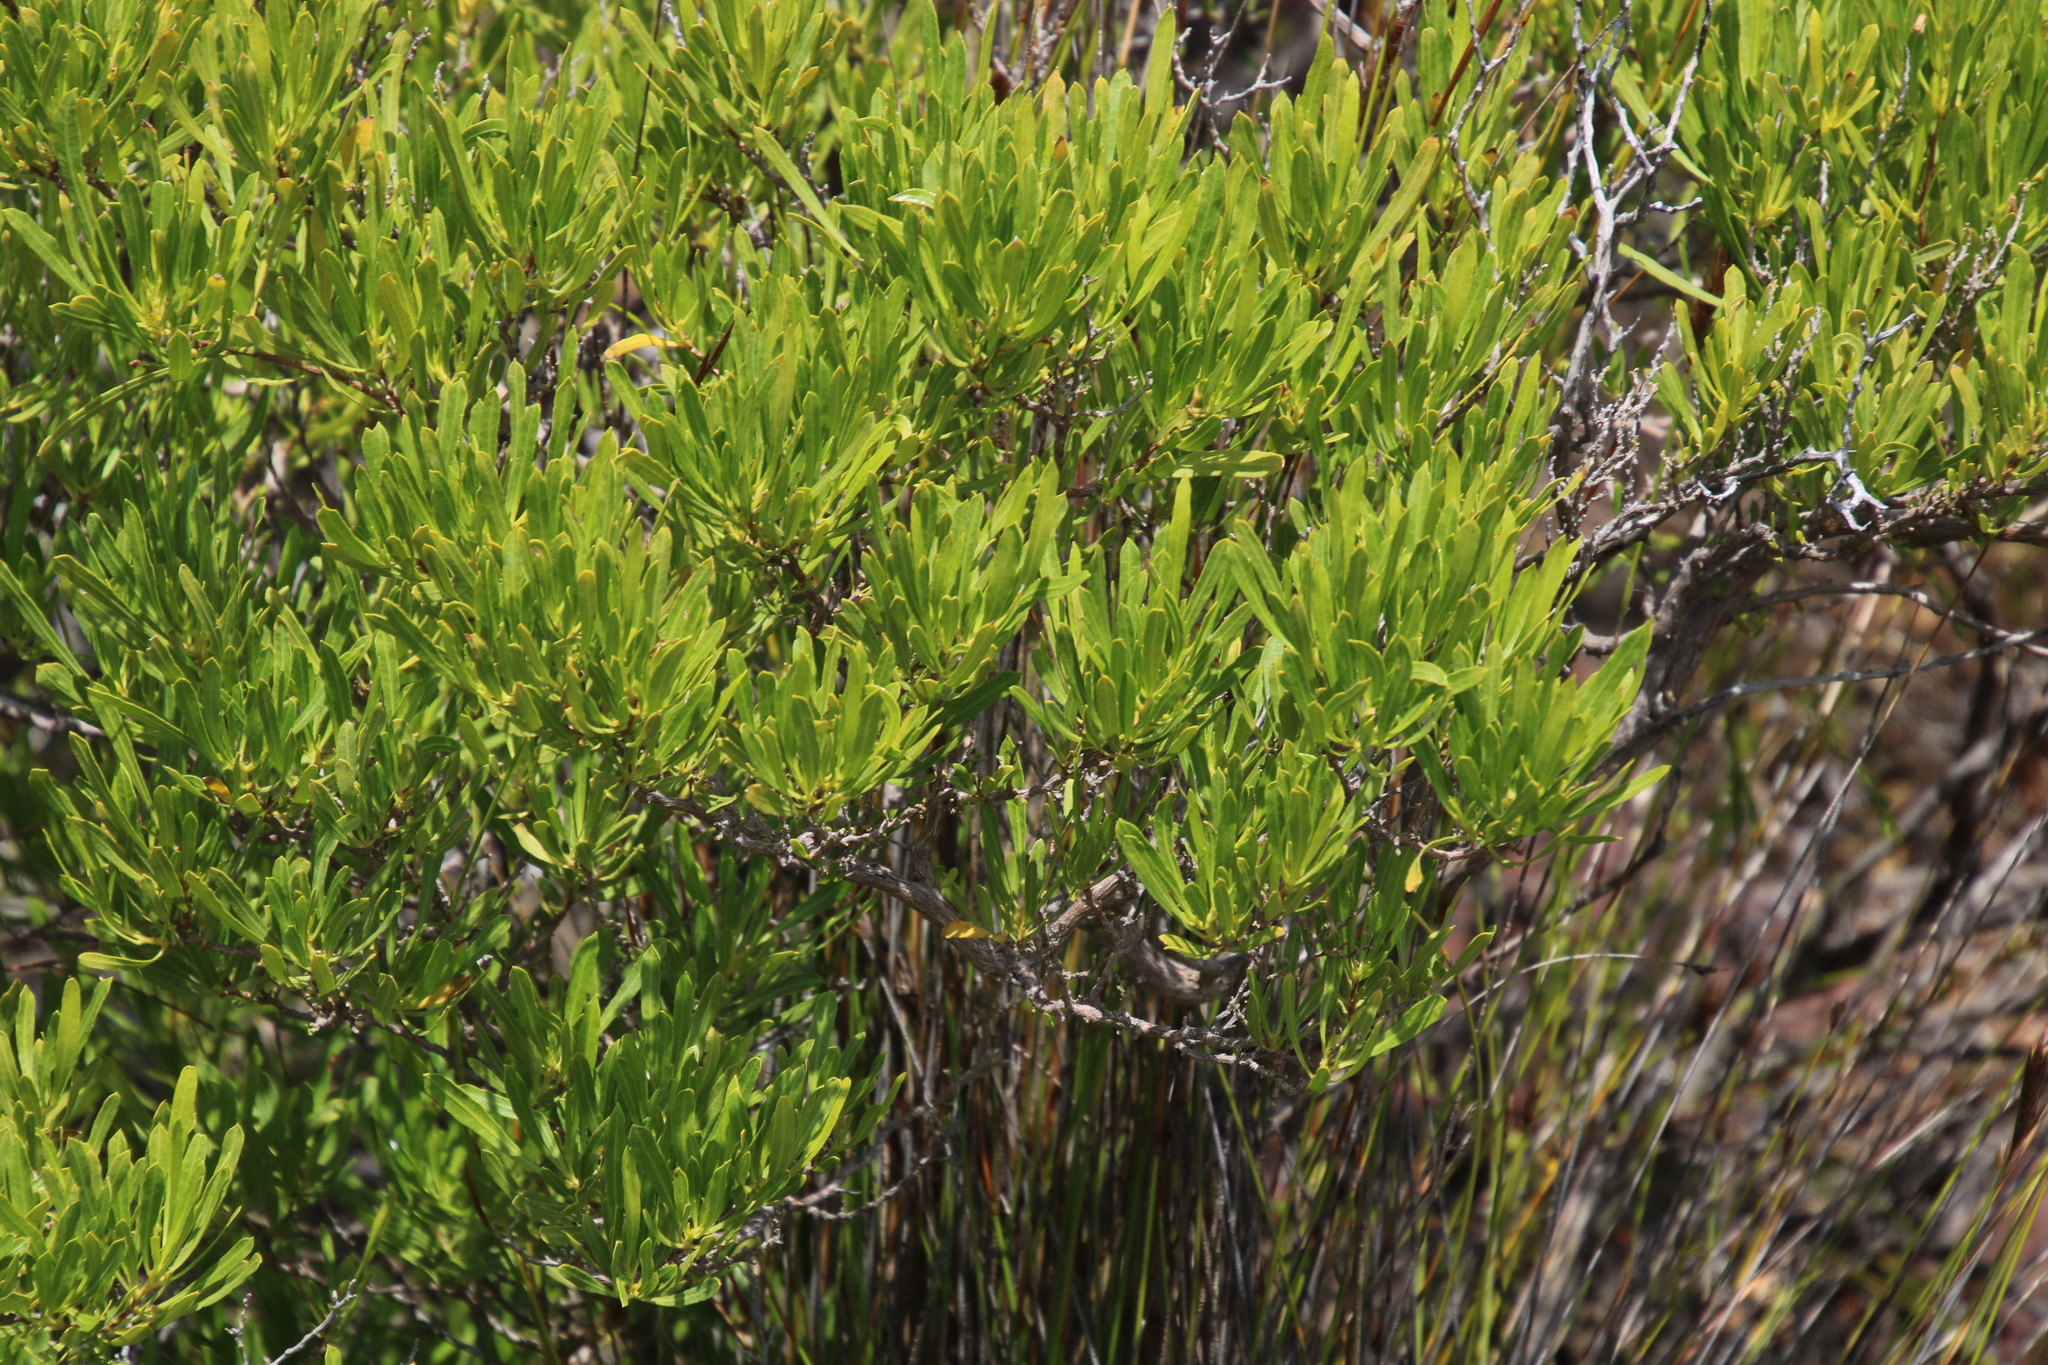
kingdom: Plantae
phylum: Tracheophyta
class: Magnoliopsida
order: Sapindales
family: Sapindaceae
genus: Dodonaea
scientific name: Dodonaea viscosa
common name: Hopbush
